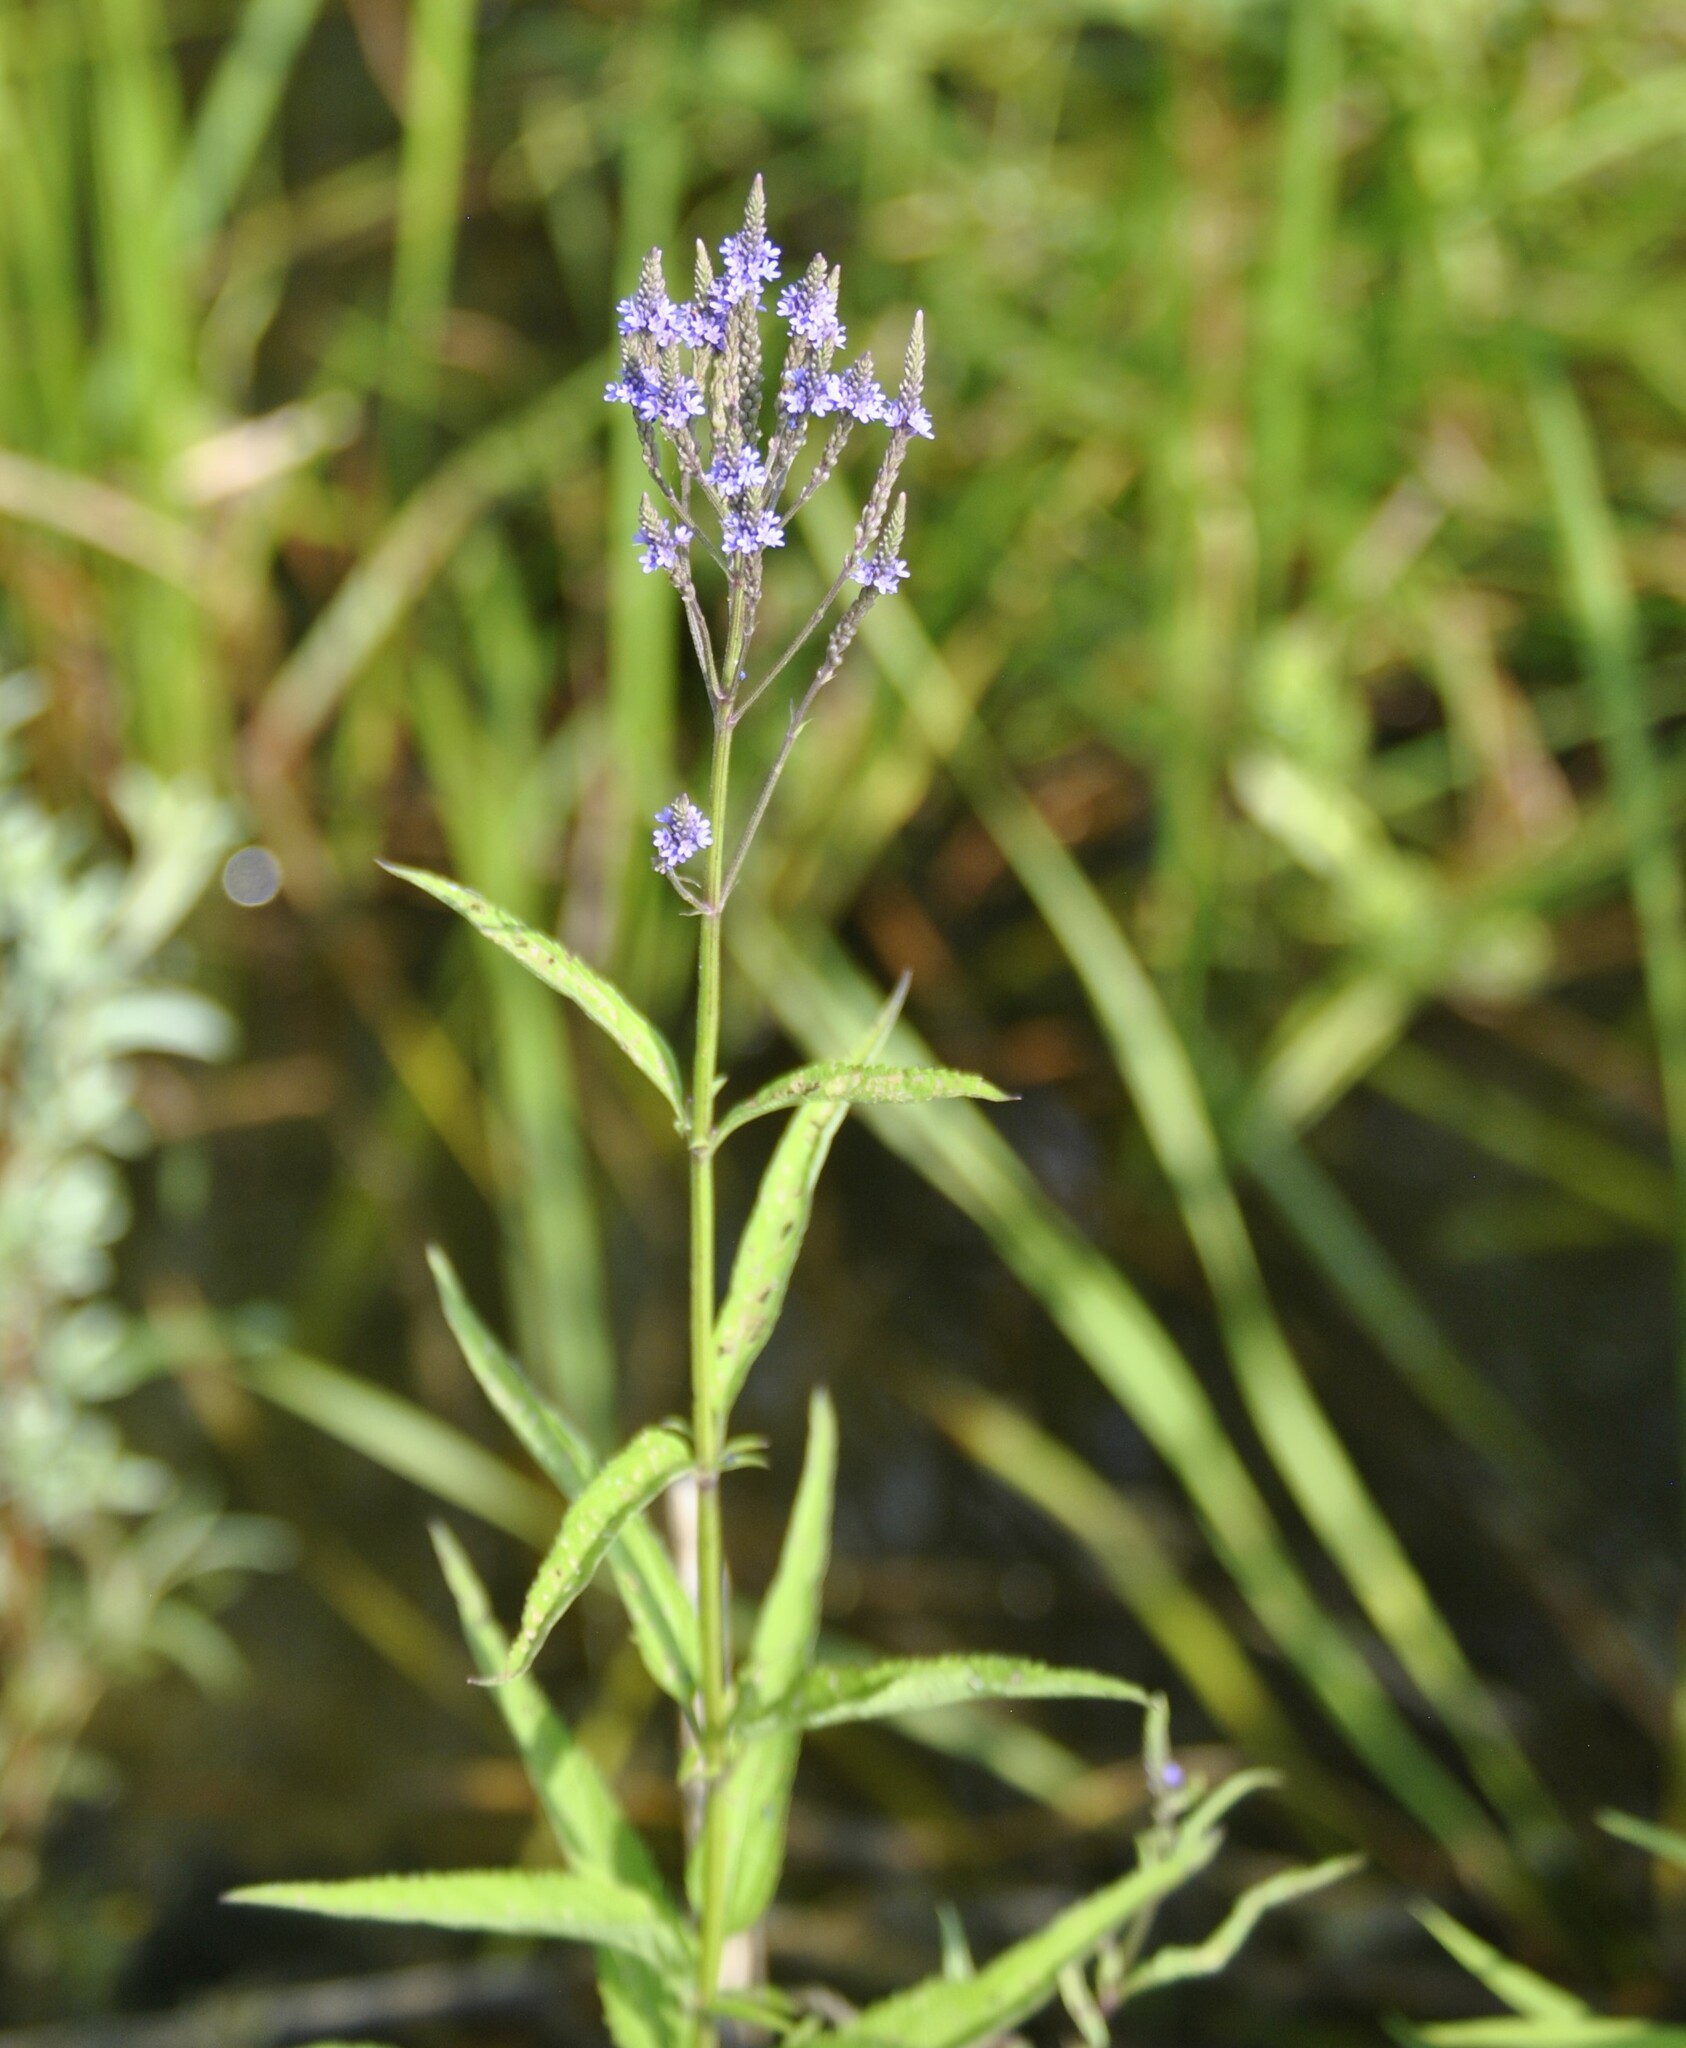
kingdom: Plantae
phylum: Tracheophyta
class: Magnoliopsida
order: Lamiales
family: Verbenaceae
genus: Verbena
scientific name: Verbena hastata
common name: American blue vervain
